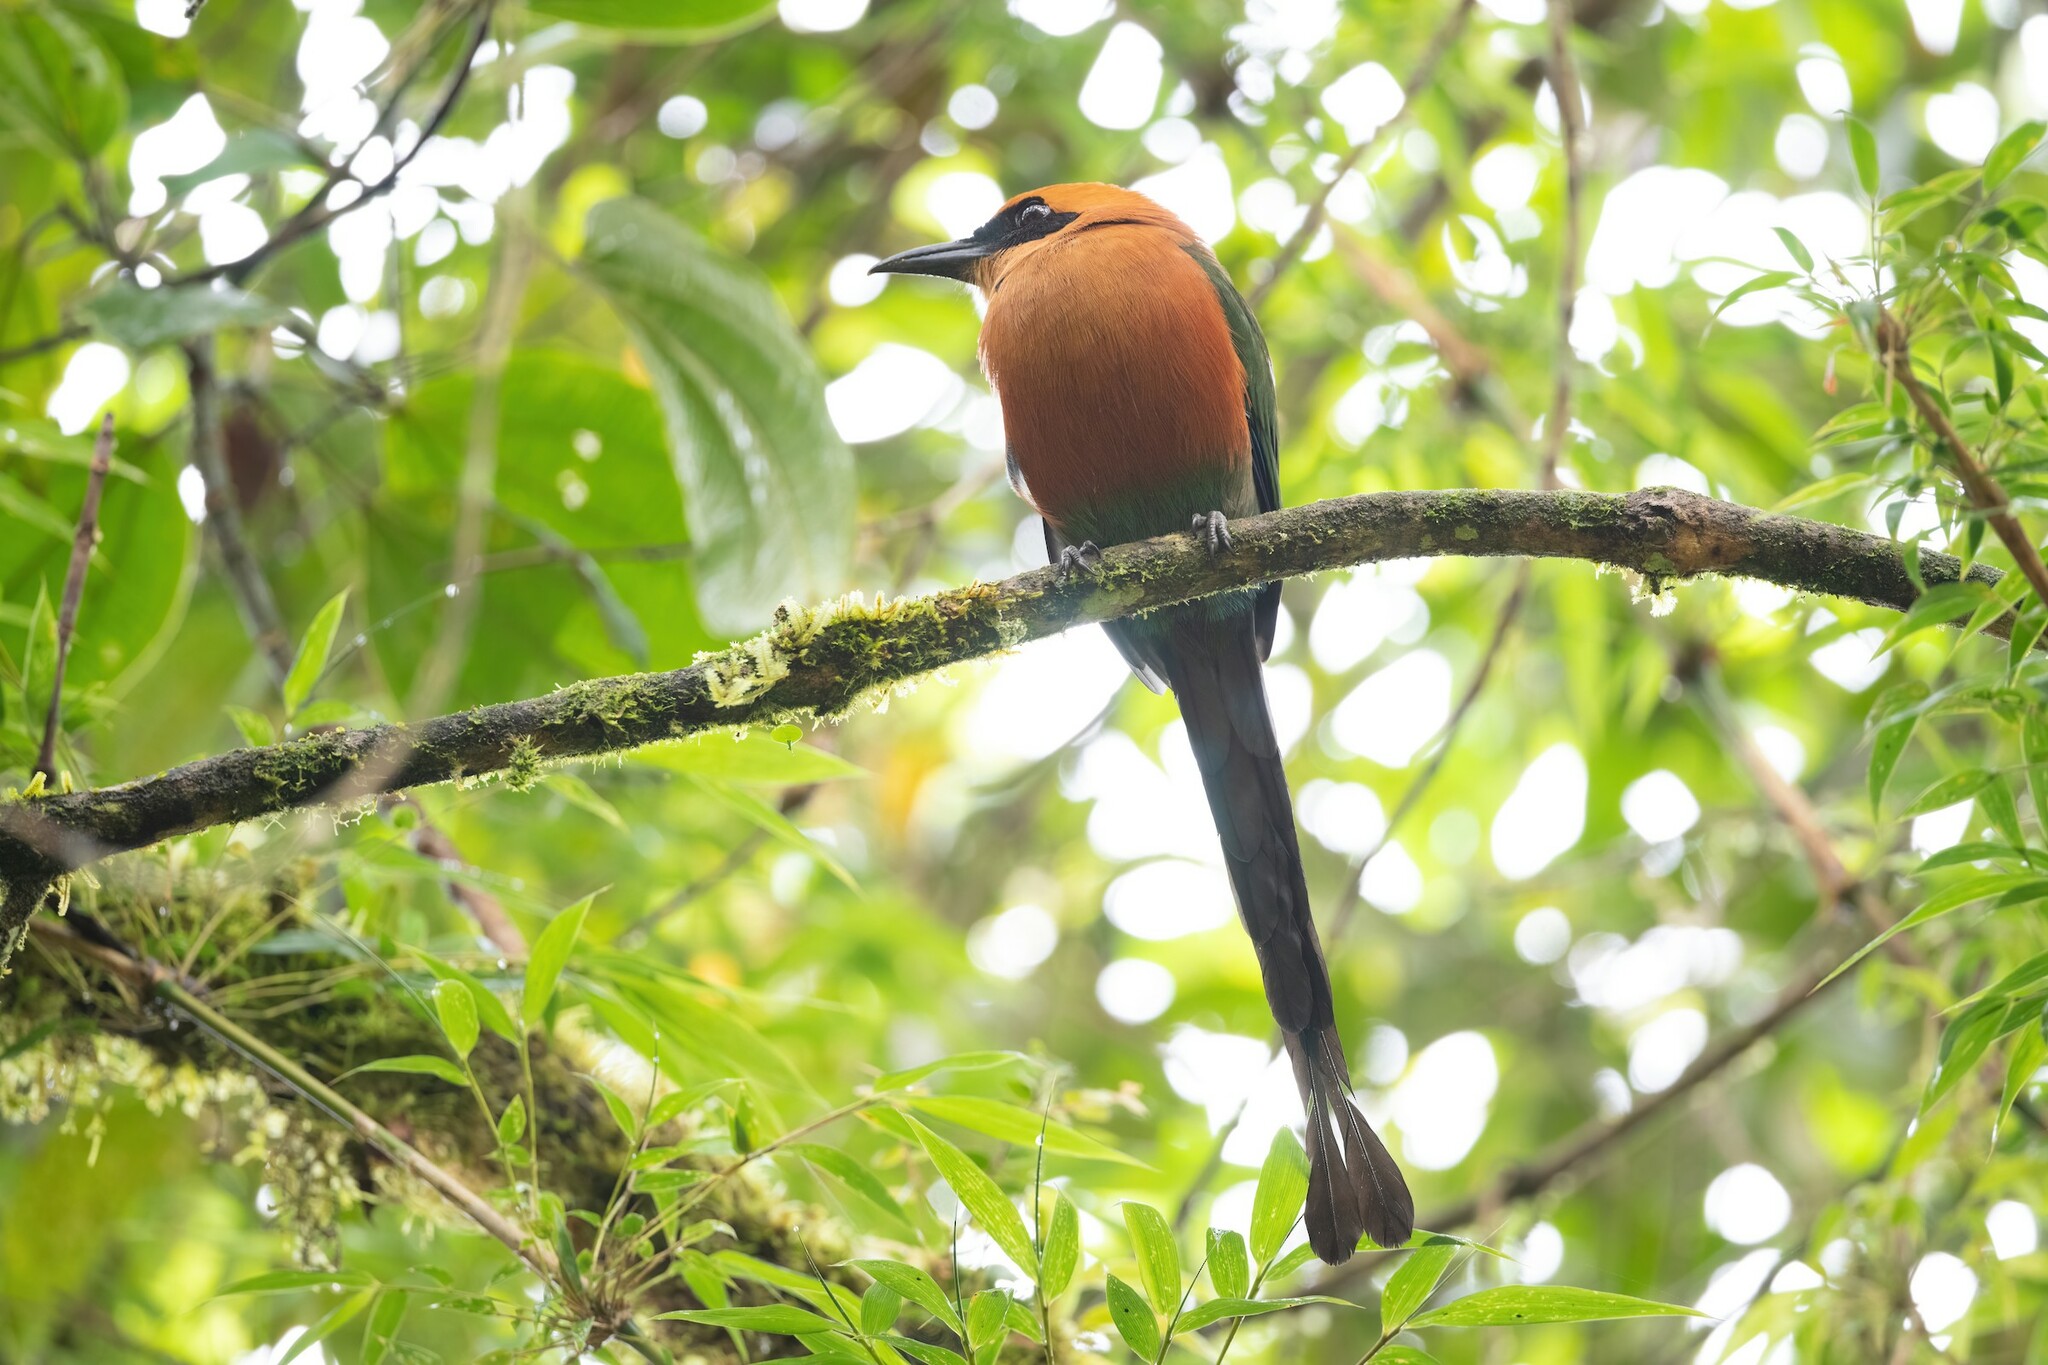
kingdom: Animalia
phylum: Chordata
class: Aves
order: Coraciiformes
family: Momotidae
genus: Baryphthengus
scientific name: Baryphthengus martii
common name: Rufous motmot
